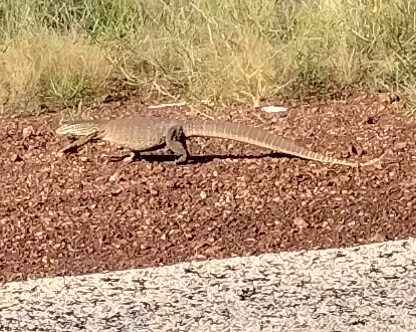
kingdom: Animalia
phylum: Chordata
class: Squamata
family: Varanidae
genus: Varanus
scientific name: Varanus panoptes
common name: Yellow-spotted monitor
